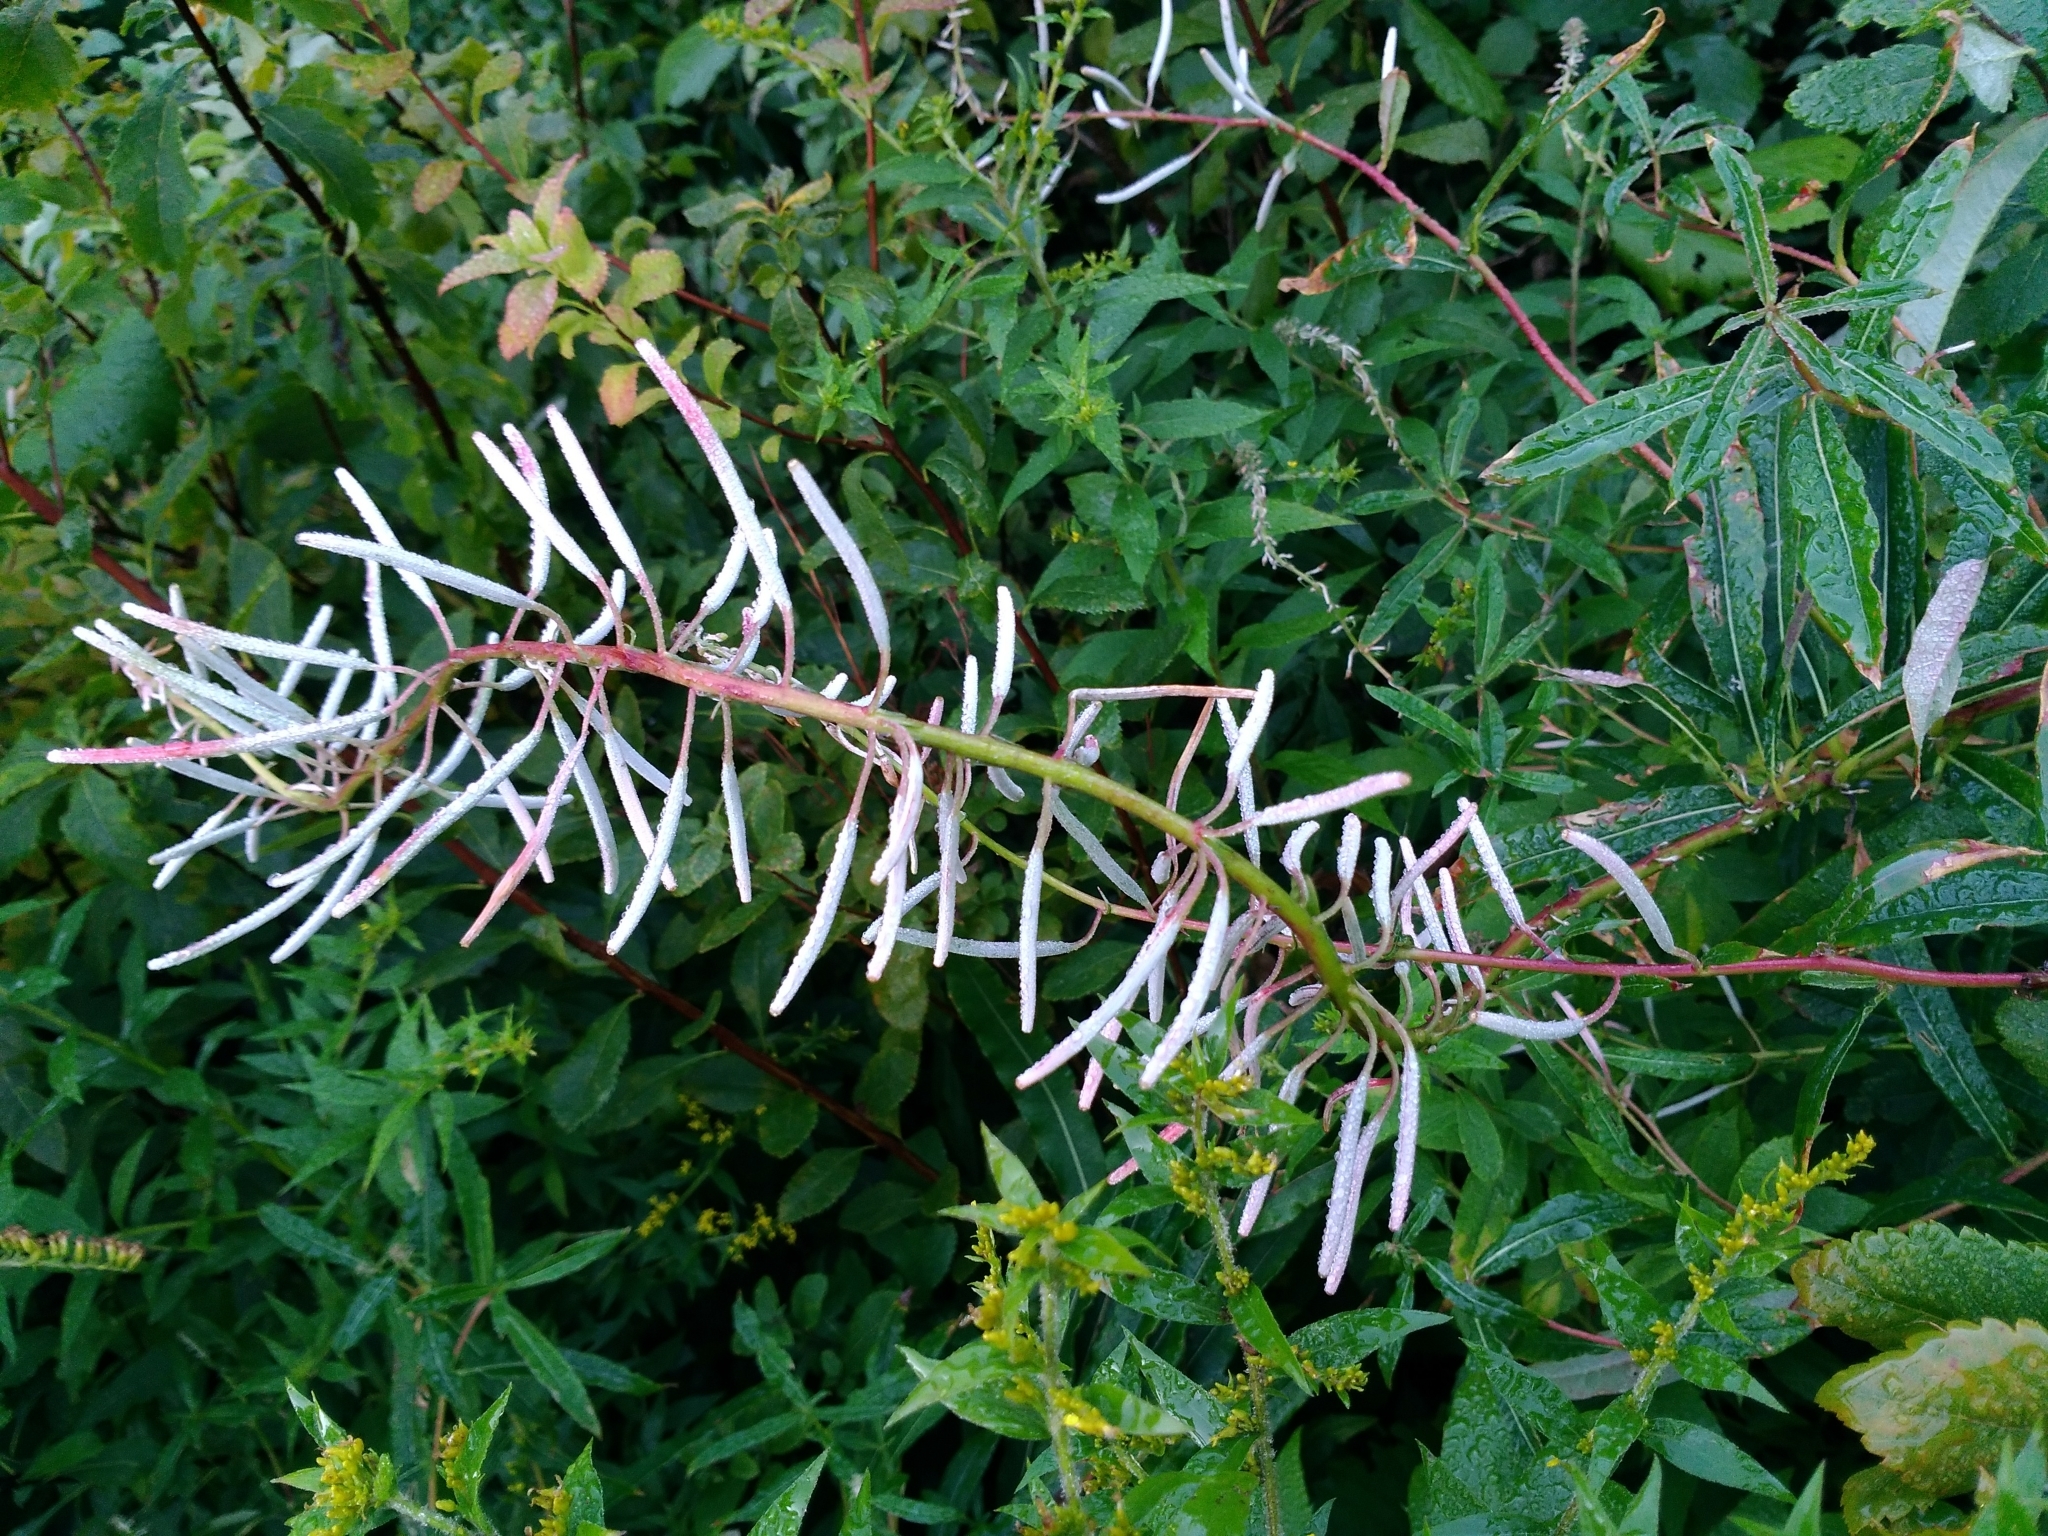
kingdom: Plantae
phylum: Tracheophyta
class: Magnoliopsida
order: Myrtales
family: Onagraceae
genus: Chamaenerion
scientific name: Chamaenerion angustifolium
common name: Fireweed
